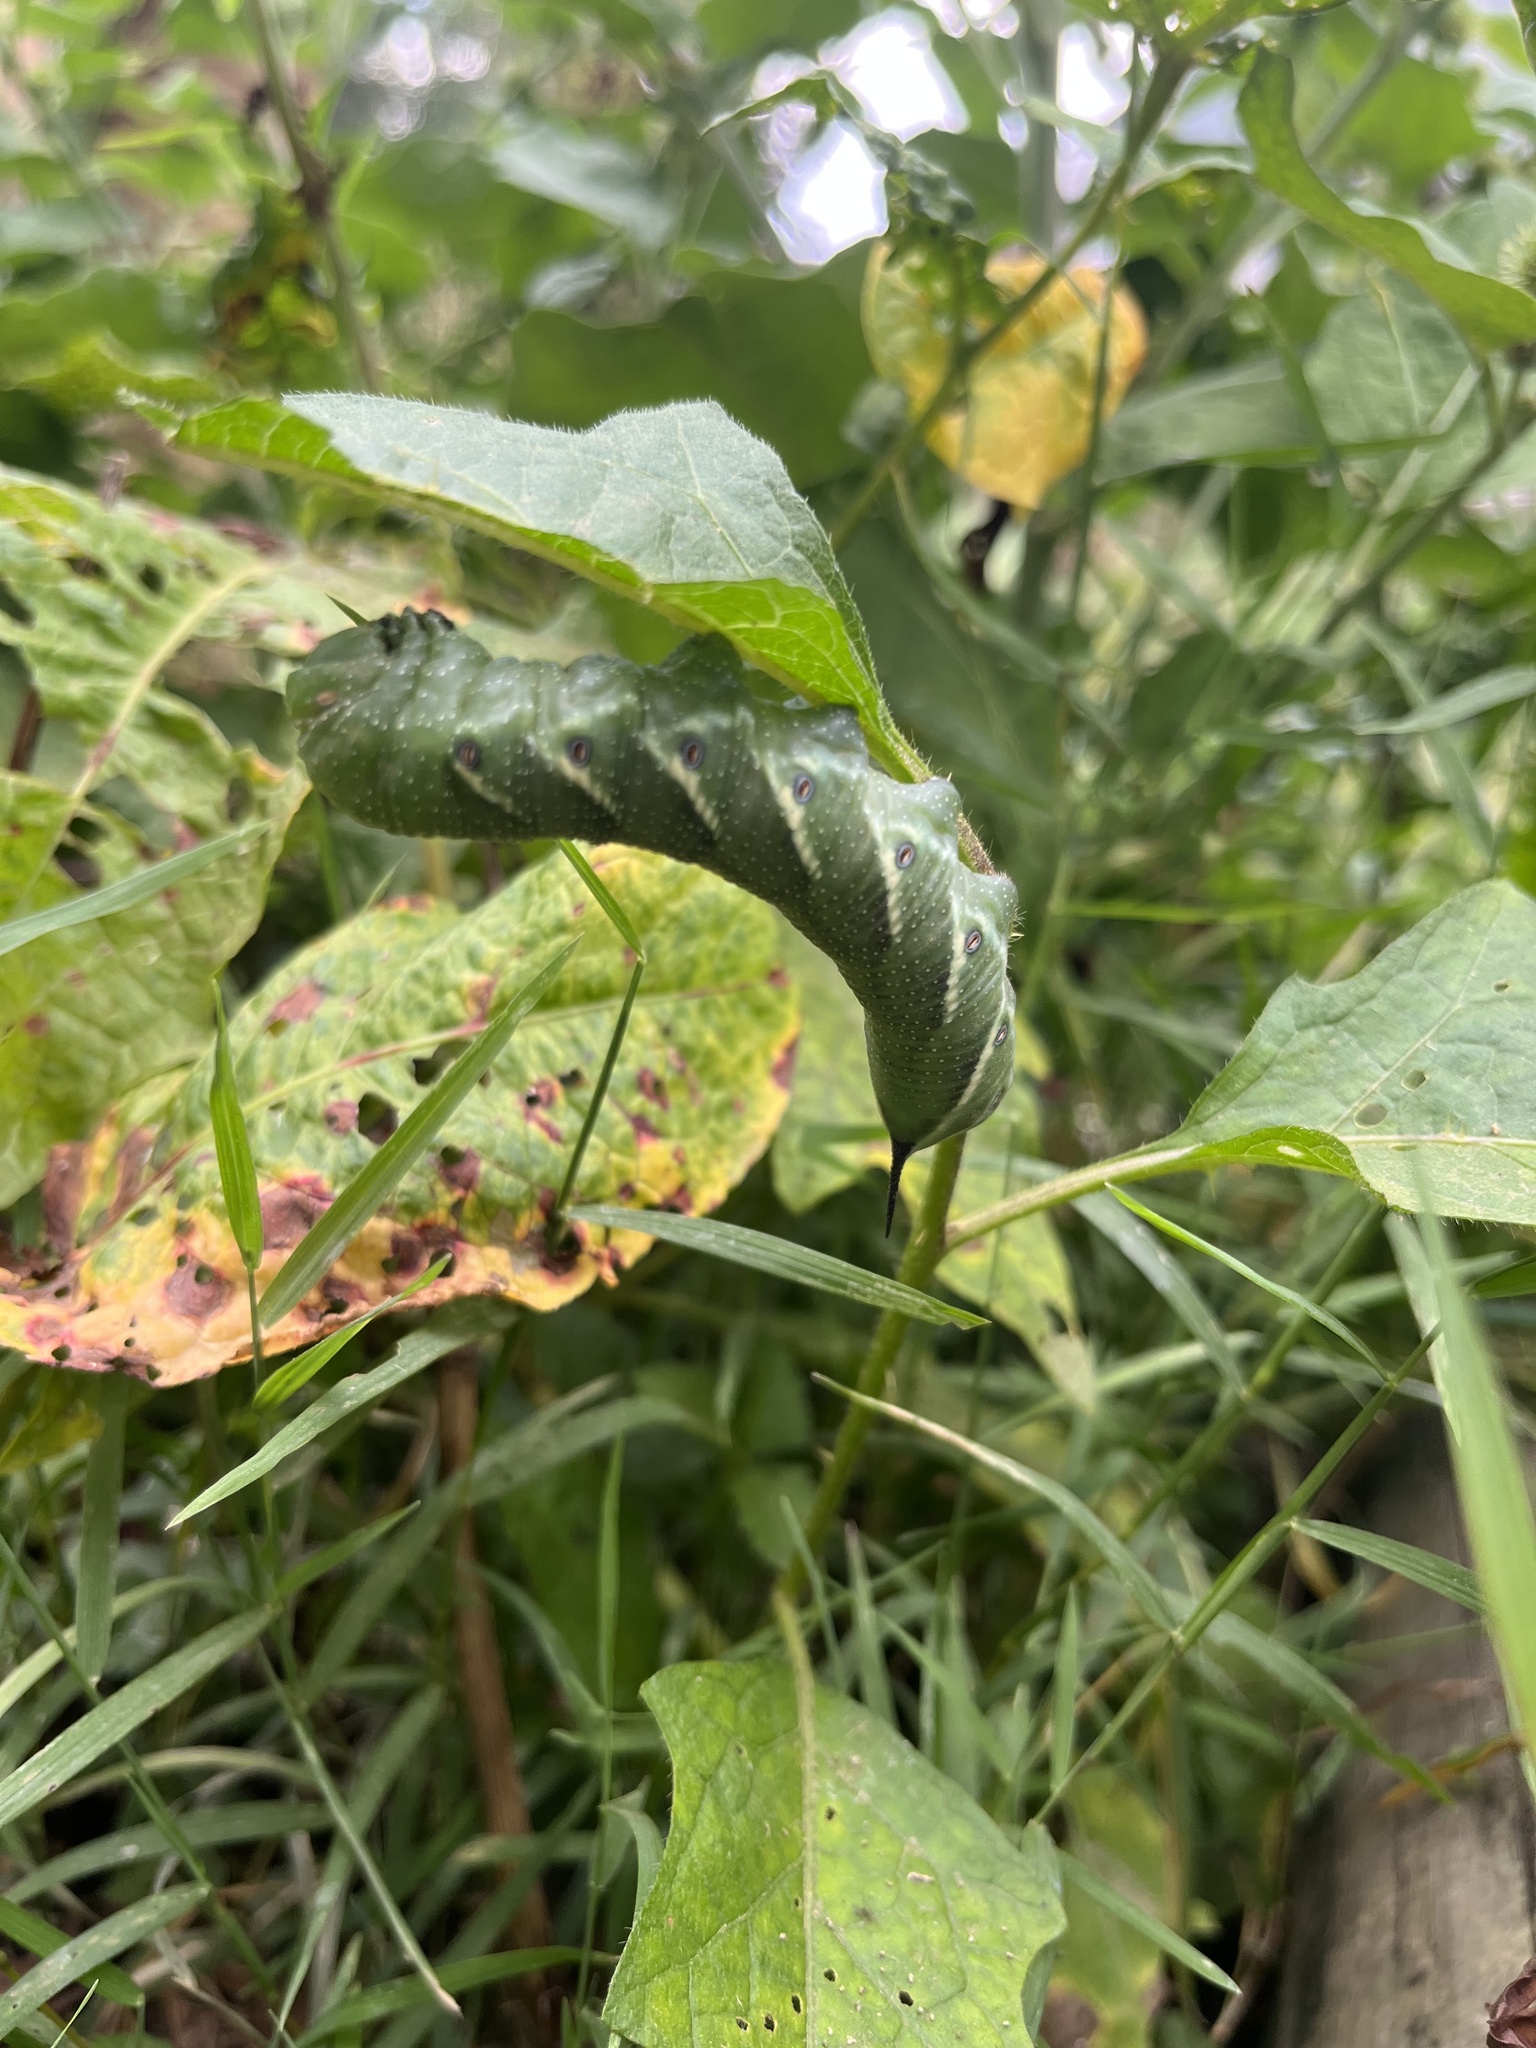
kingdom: Animalia
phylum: Arthropoda
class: Insecta
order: Lepidoptera
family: Sphingidae
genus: Manduca
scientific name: Manduca quinquemaculatus
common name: Five-spotted hawk-moth
